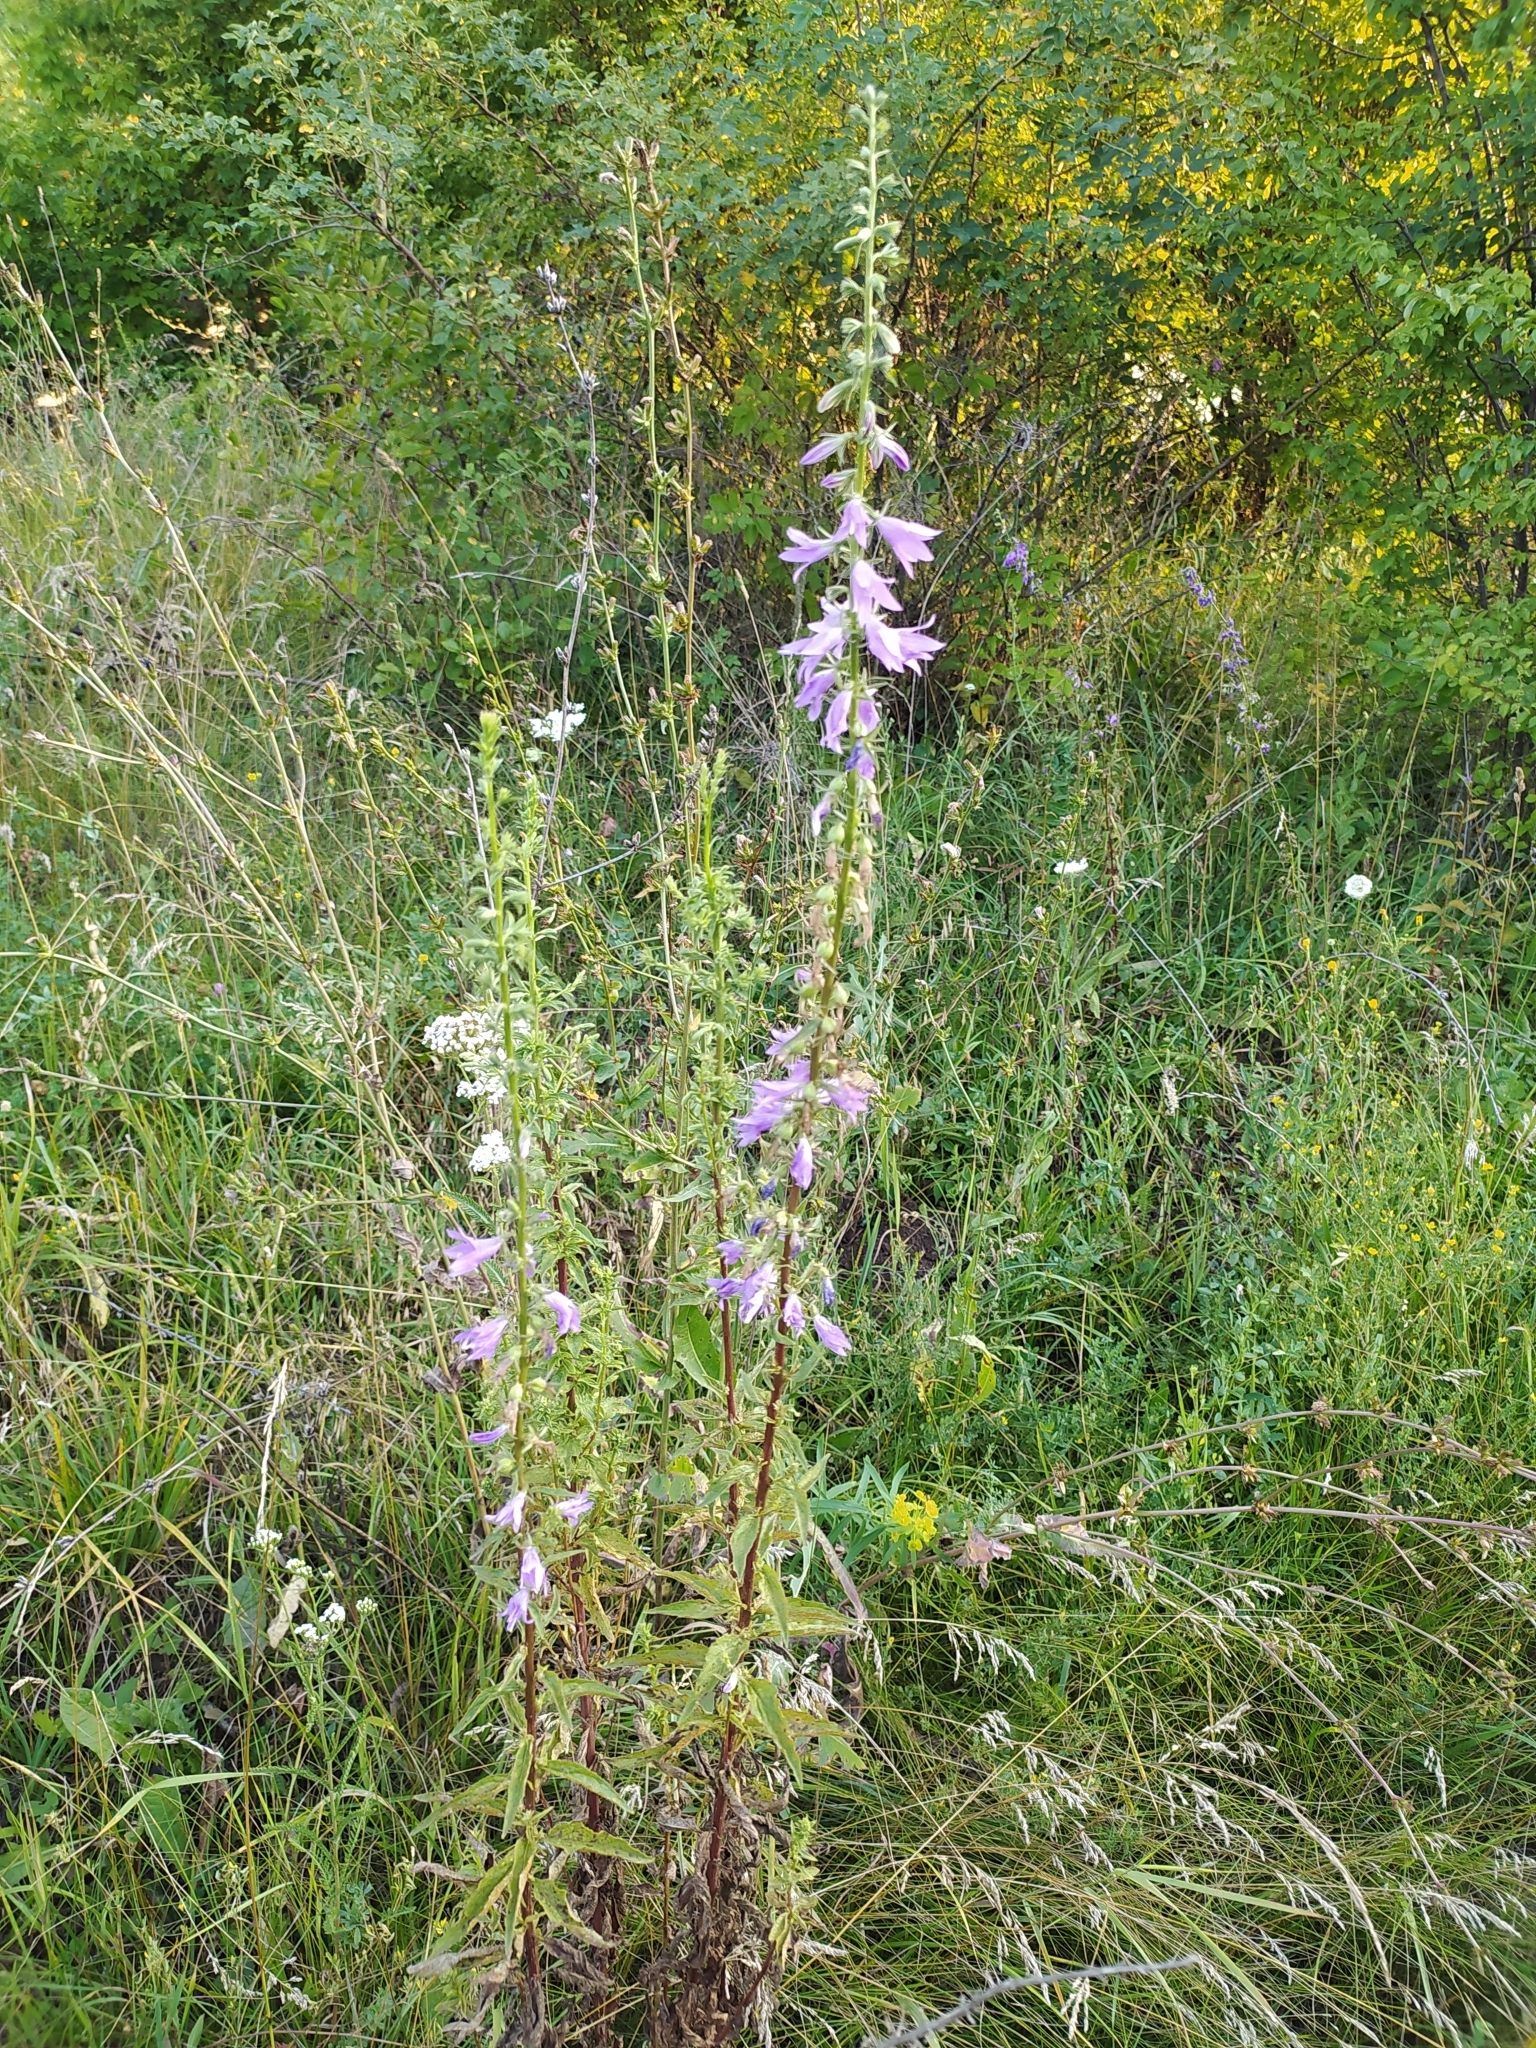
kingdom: Plantae
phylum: Tracheophyta
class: Magnoliopsida
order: Asterales
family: Campanulaceae
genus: Campanula
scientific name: Campanula rapunculoides
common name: Creeping bellflower
